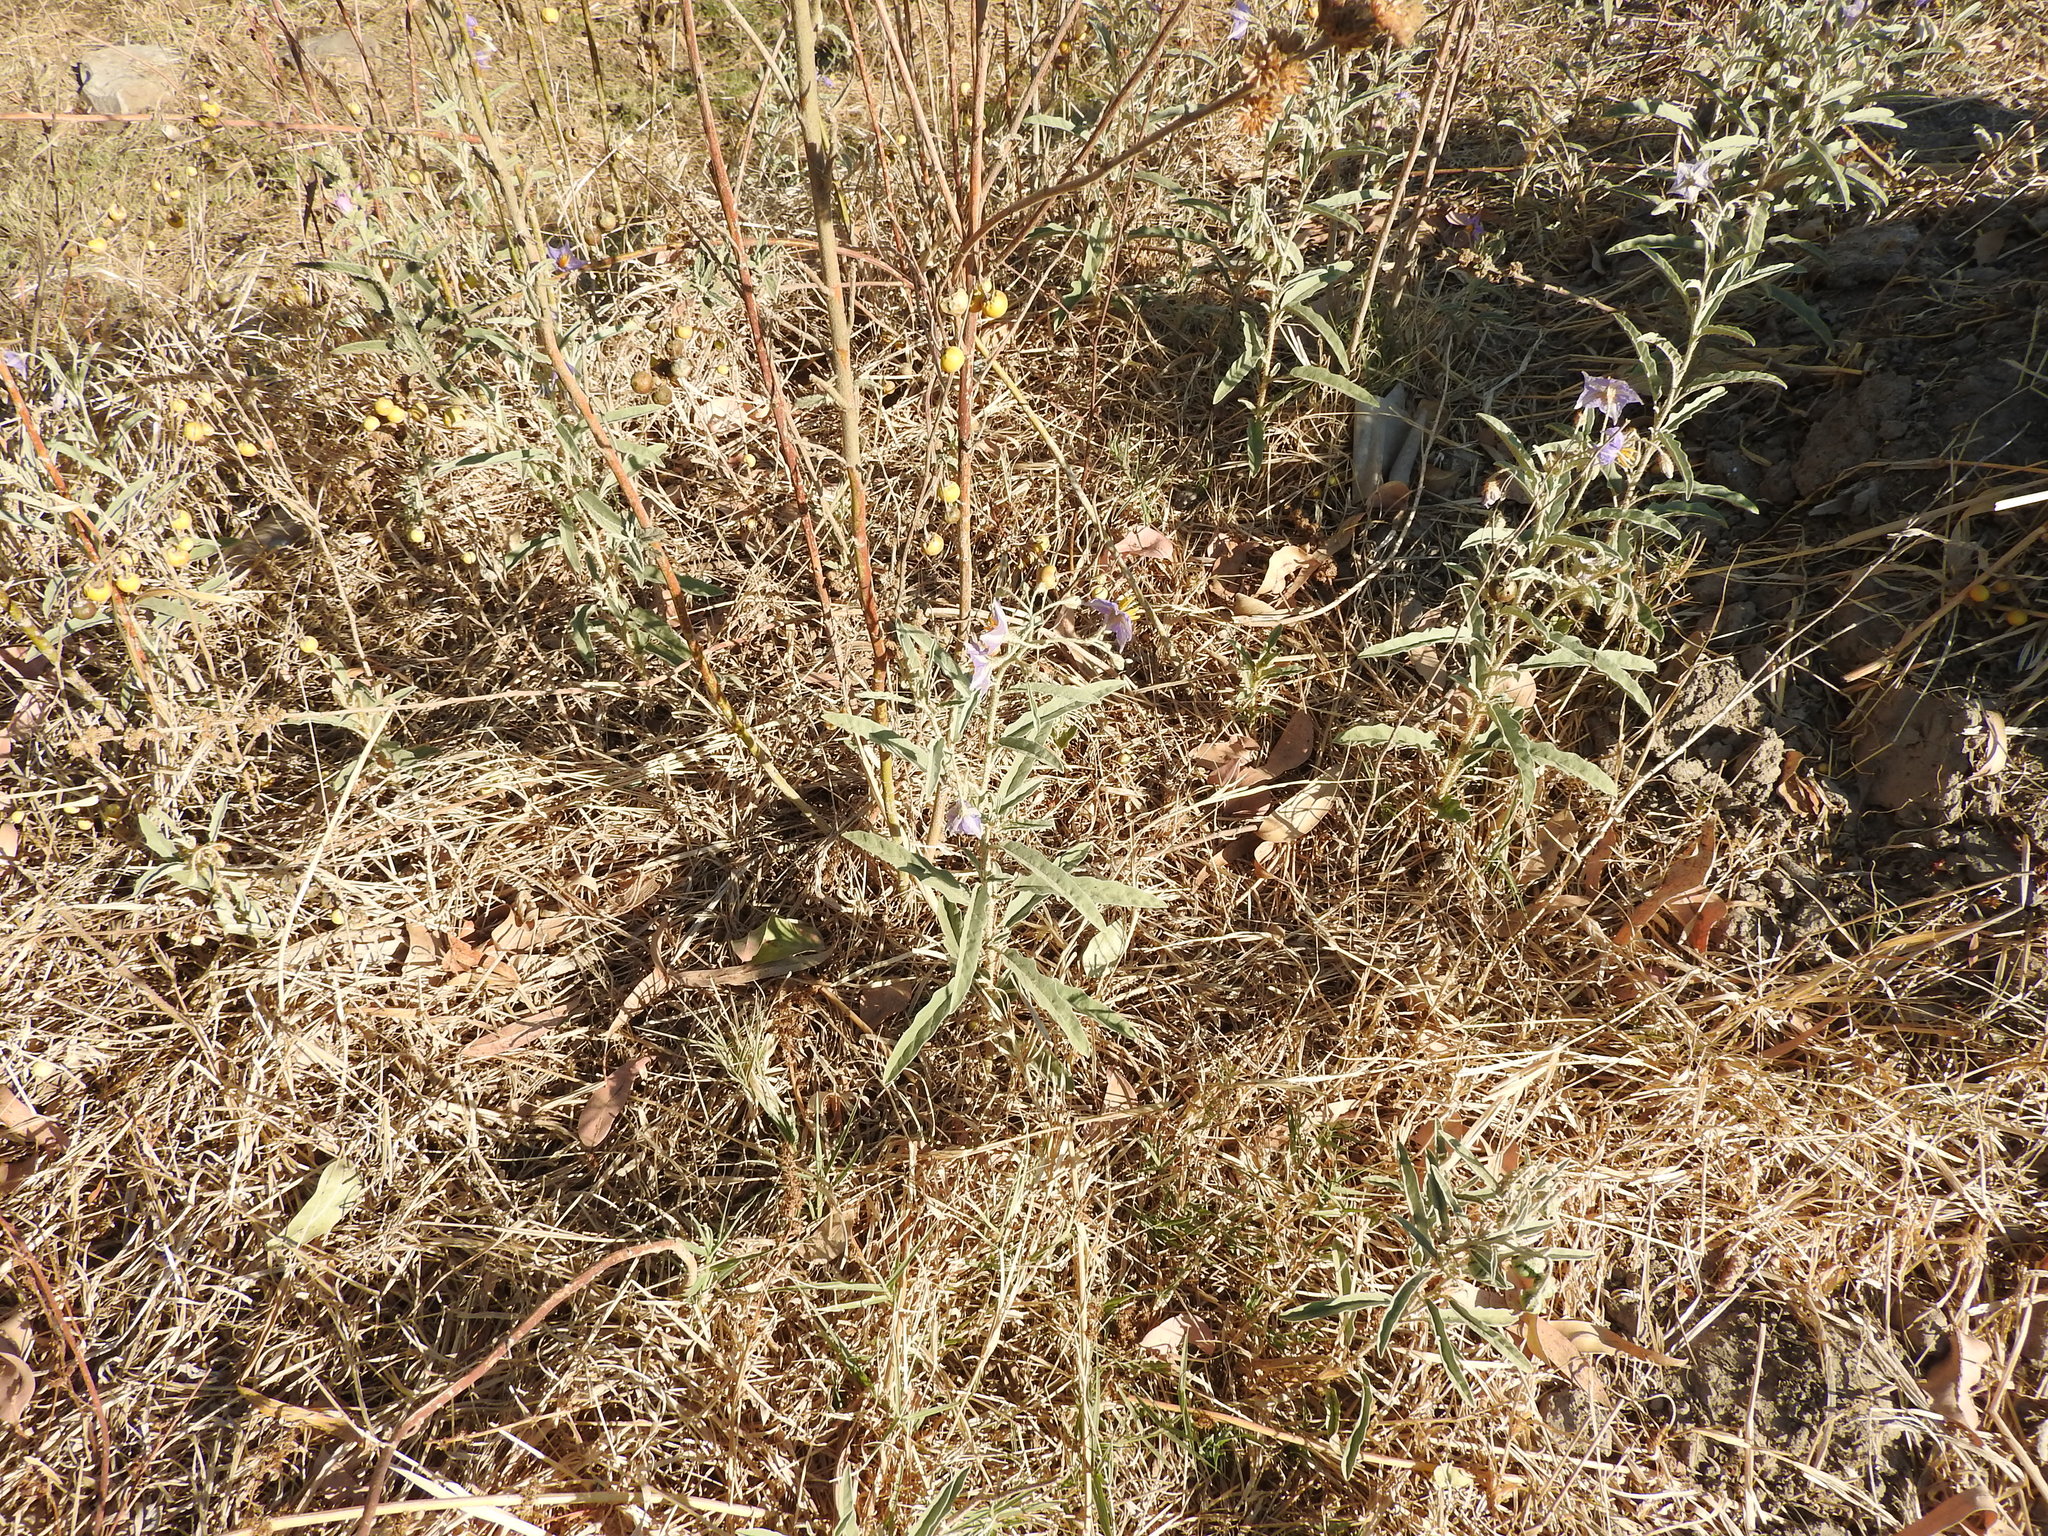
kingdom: Plantae
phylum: Tracheophyta
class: Magnoliopsida
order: Solanales
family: Solanaceae
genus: Solanum
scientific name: Solanum elaeagnifolium
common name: Silverleaf nightshade
